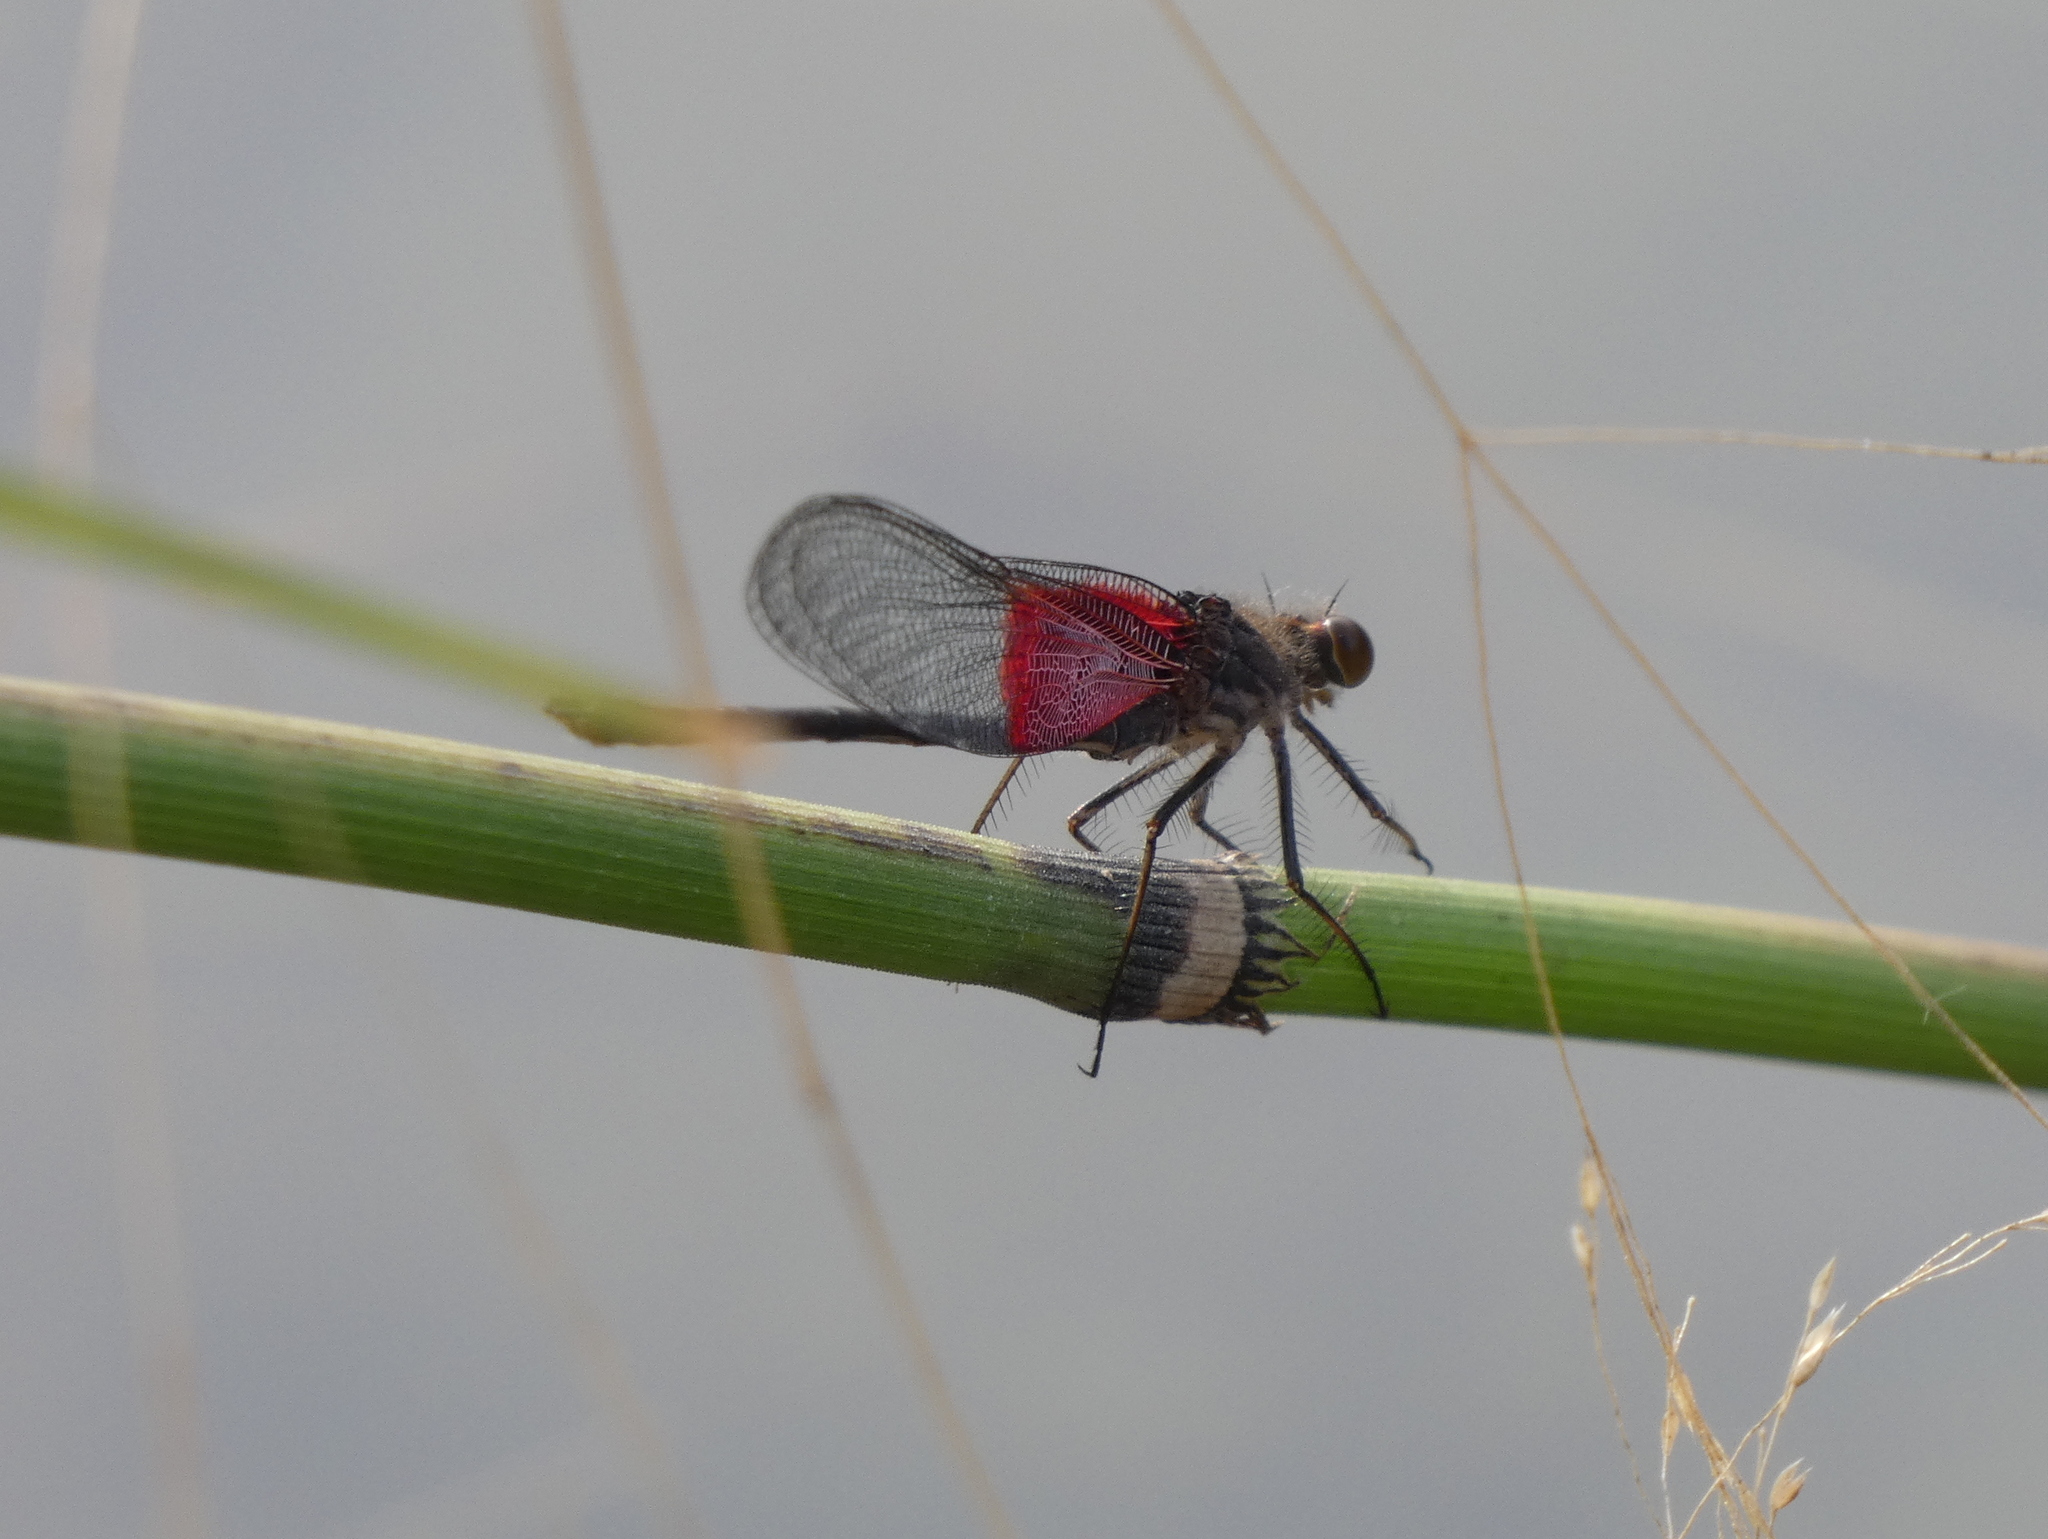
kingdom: Animalia
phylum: Arthropoda
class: Insecta
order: Odonata
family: Calopterygidae
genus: Hetaerina
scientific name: Hetaerina americana
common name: American rubyspot
